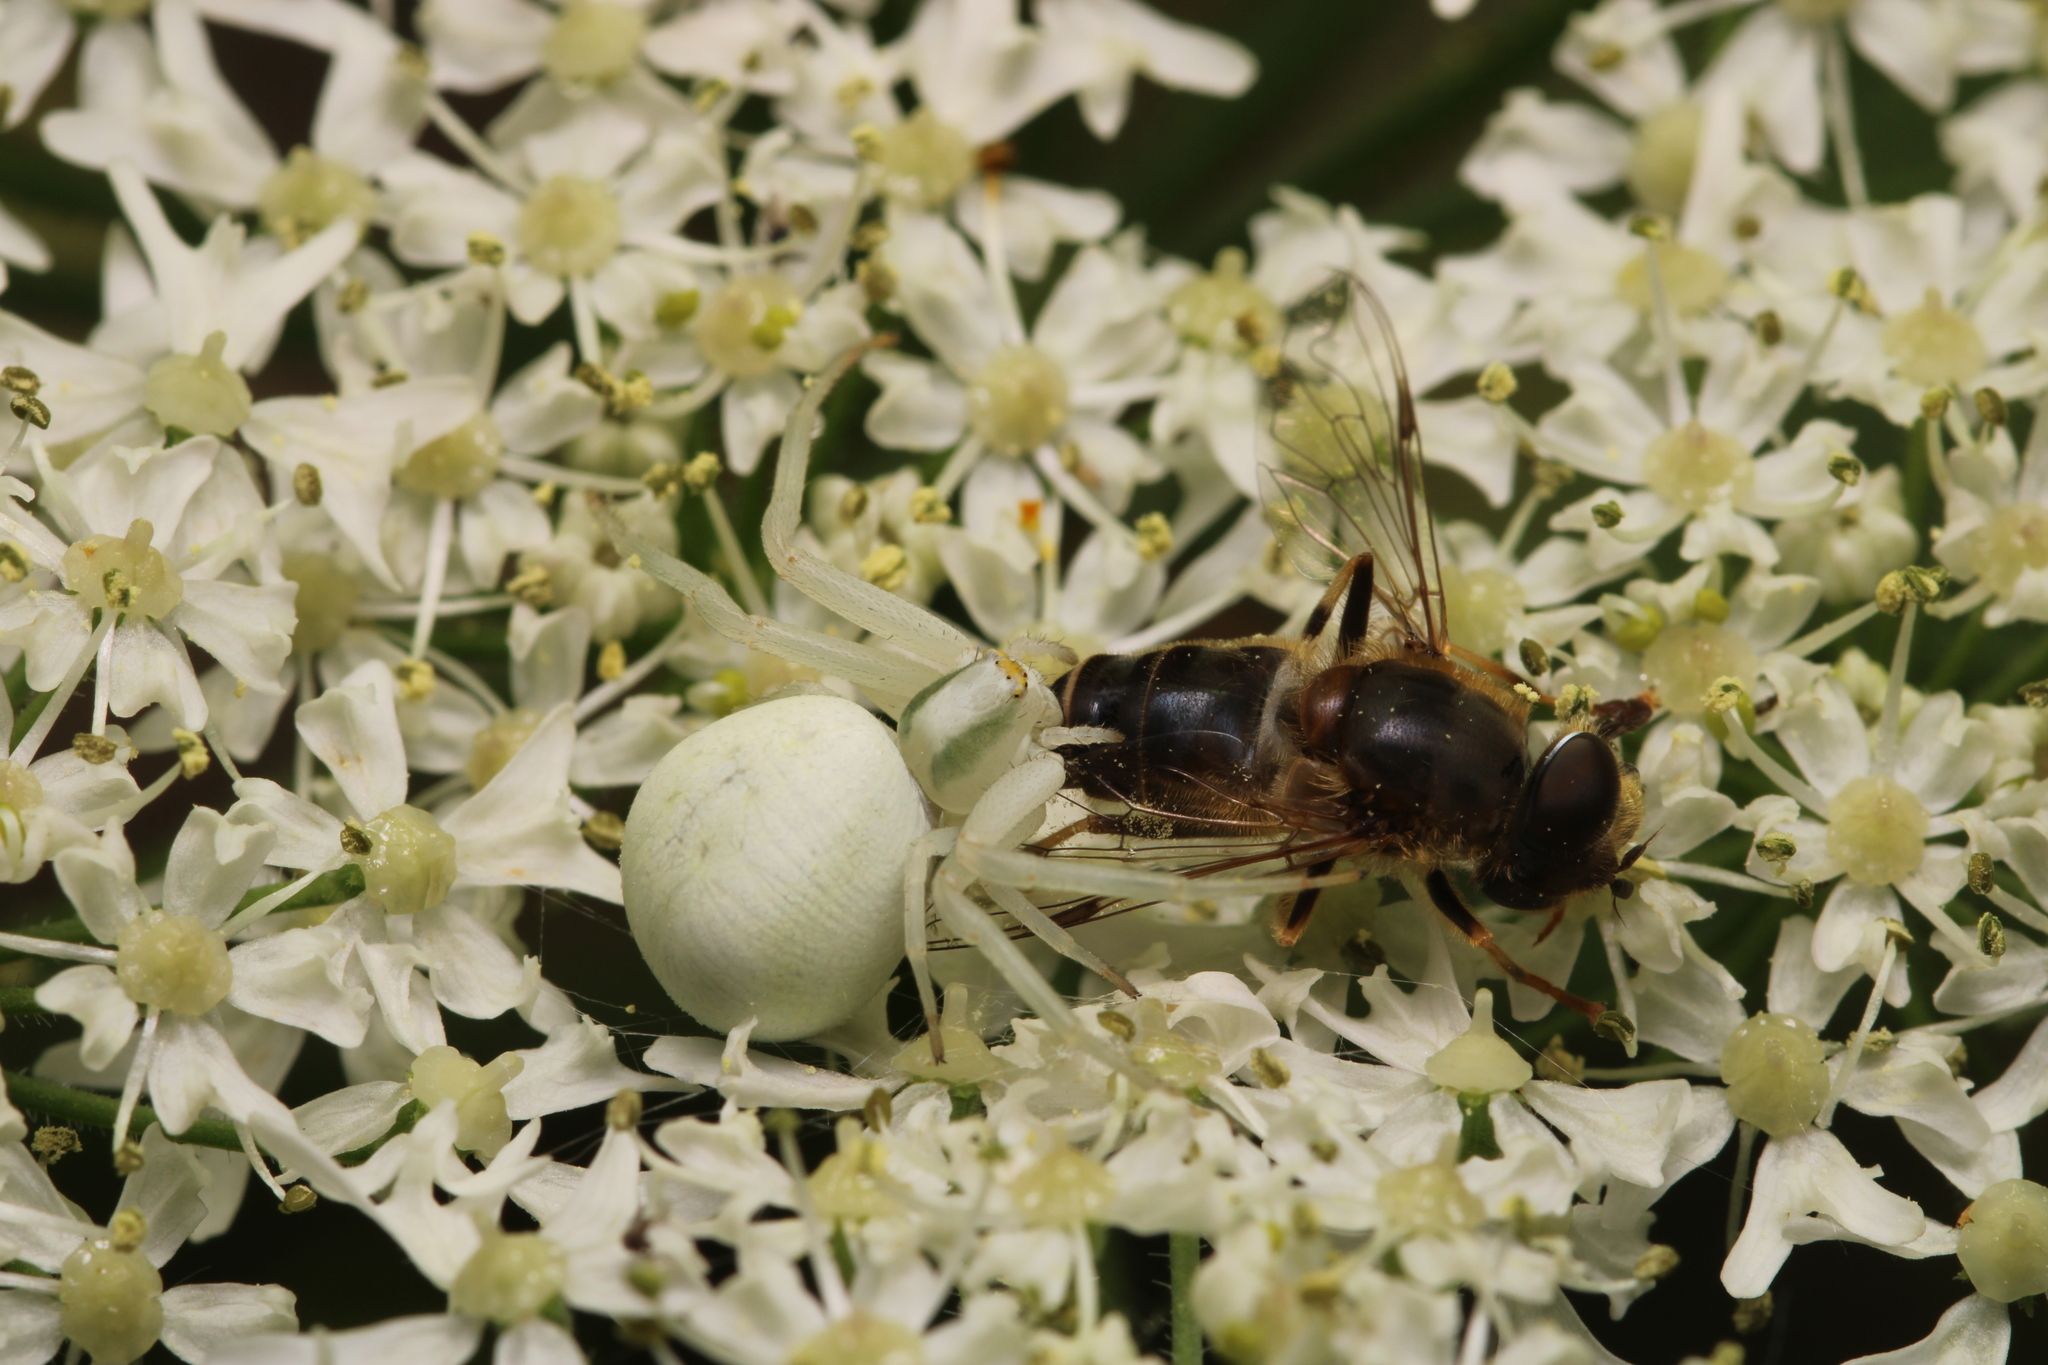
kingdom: Animalia
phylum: Arthropoda
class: Arachnida
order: Araneae
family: Thomisidae
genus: Misumena
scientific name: Misumena vatia
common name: Goldenrod crab spider
